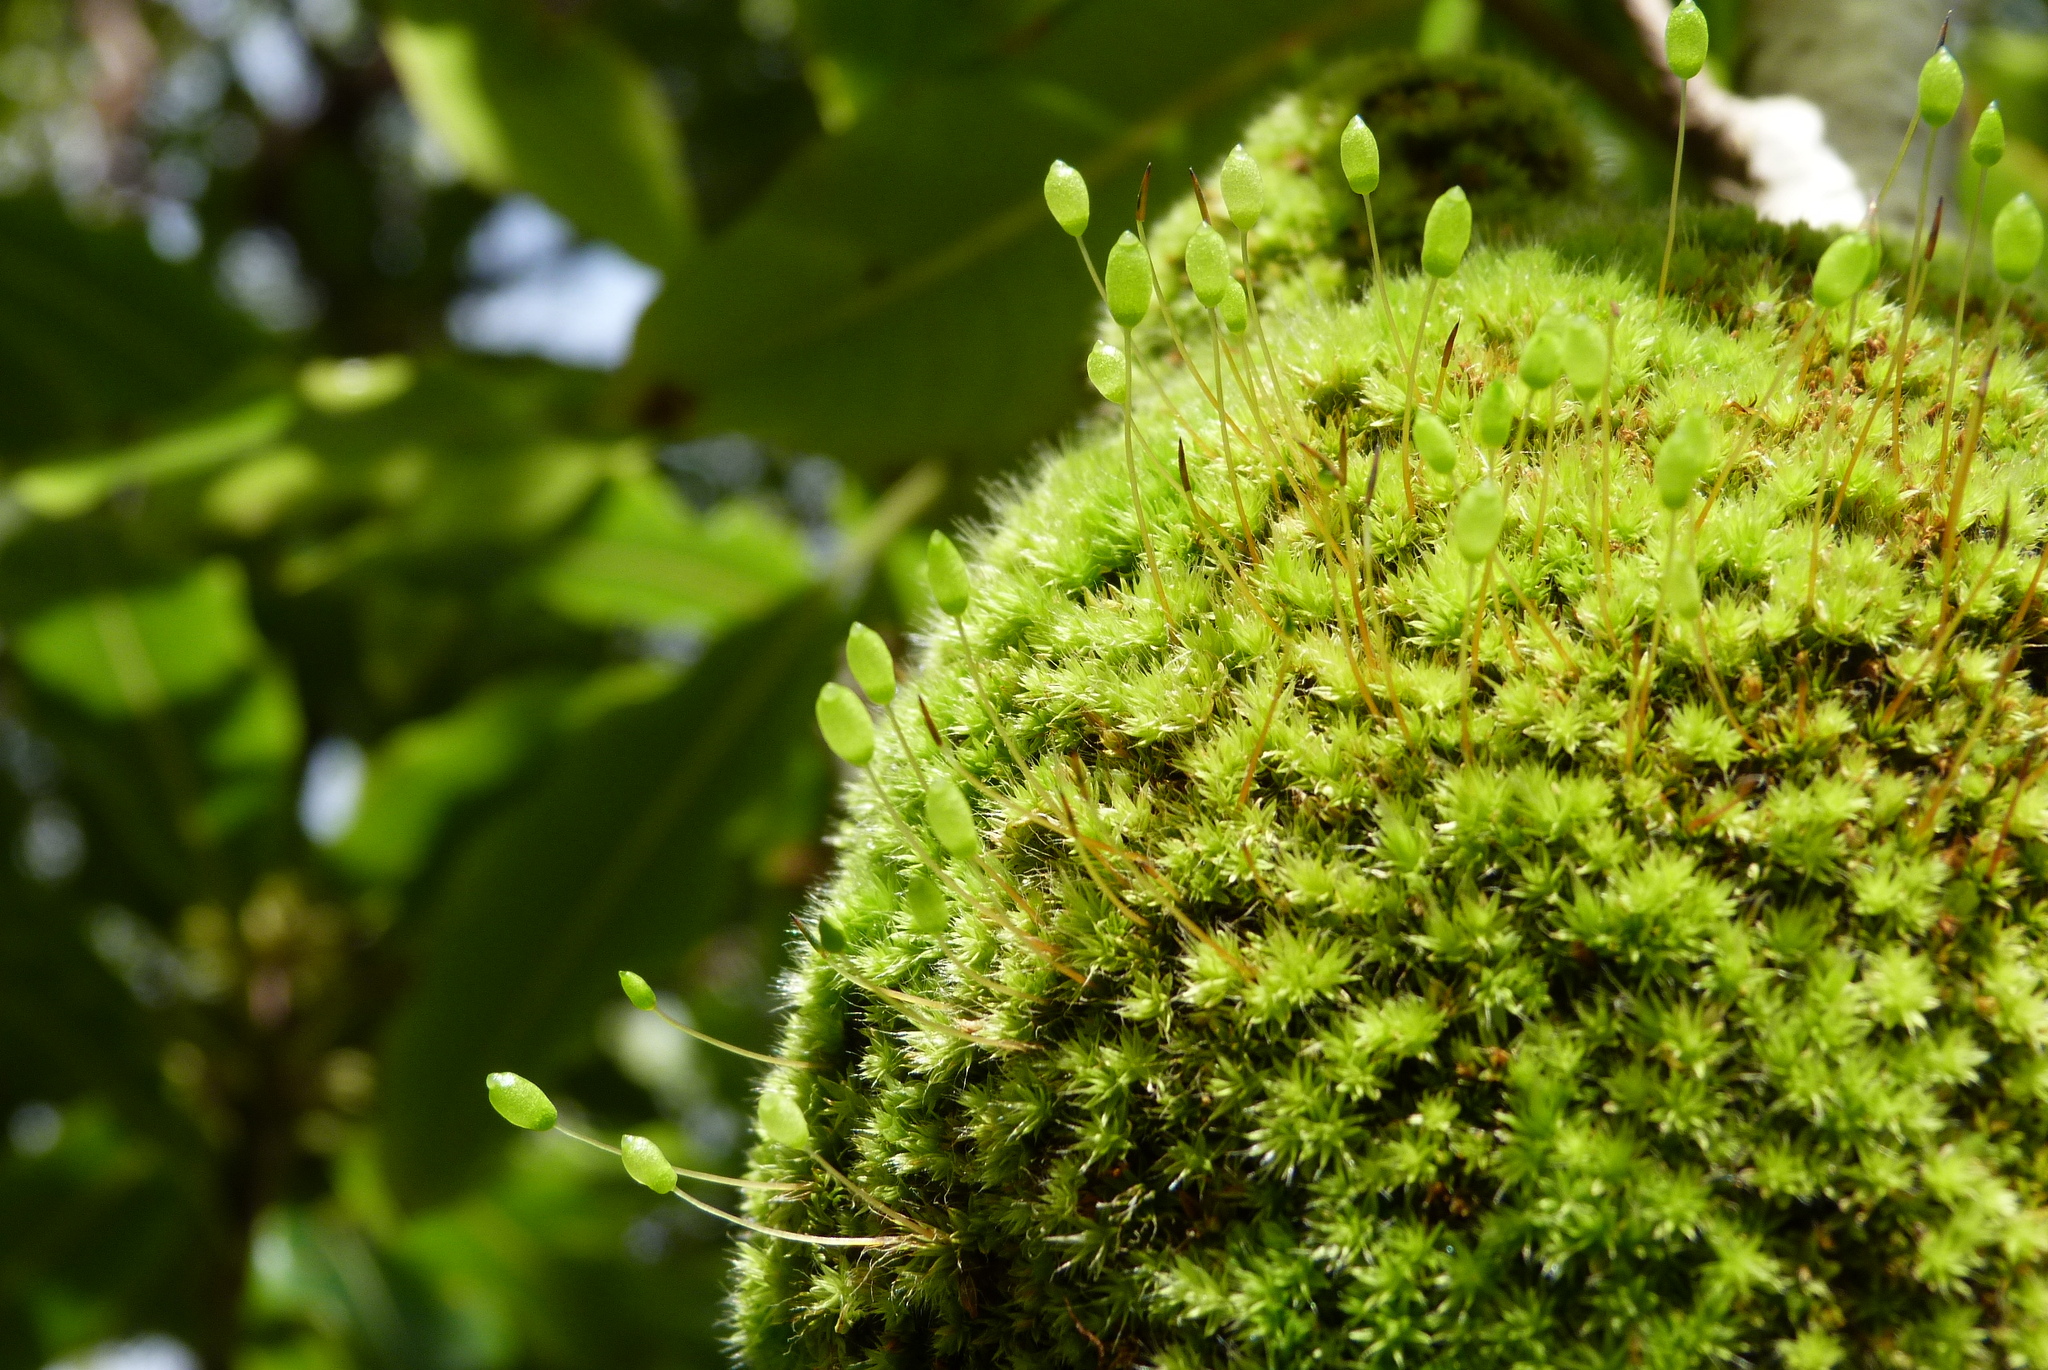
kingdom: Plantae
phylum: Bryophyta
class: Bryopsida
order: Bryales
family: Leptostomataceae
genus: Leptostomum
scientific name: Leptostomum inclinans
